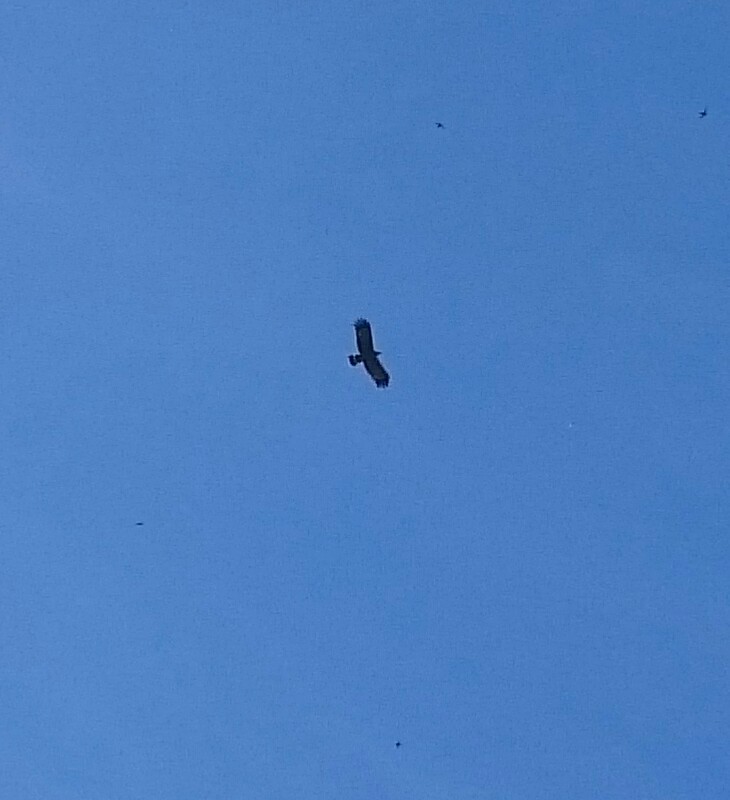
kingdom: Animalia
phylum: Chordata
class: Aves
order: Accipitriformes
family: Accipitridae
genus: Polyboroides
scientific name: Polyboroides typus
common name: African harrier-hawk
